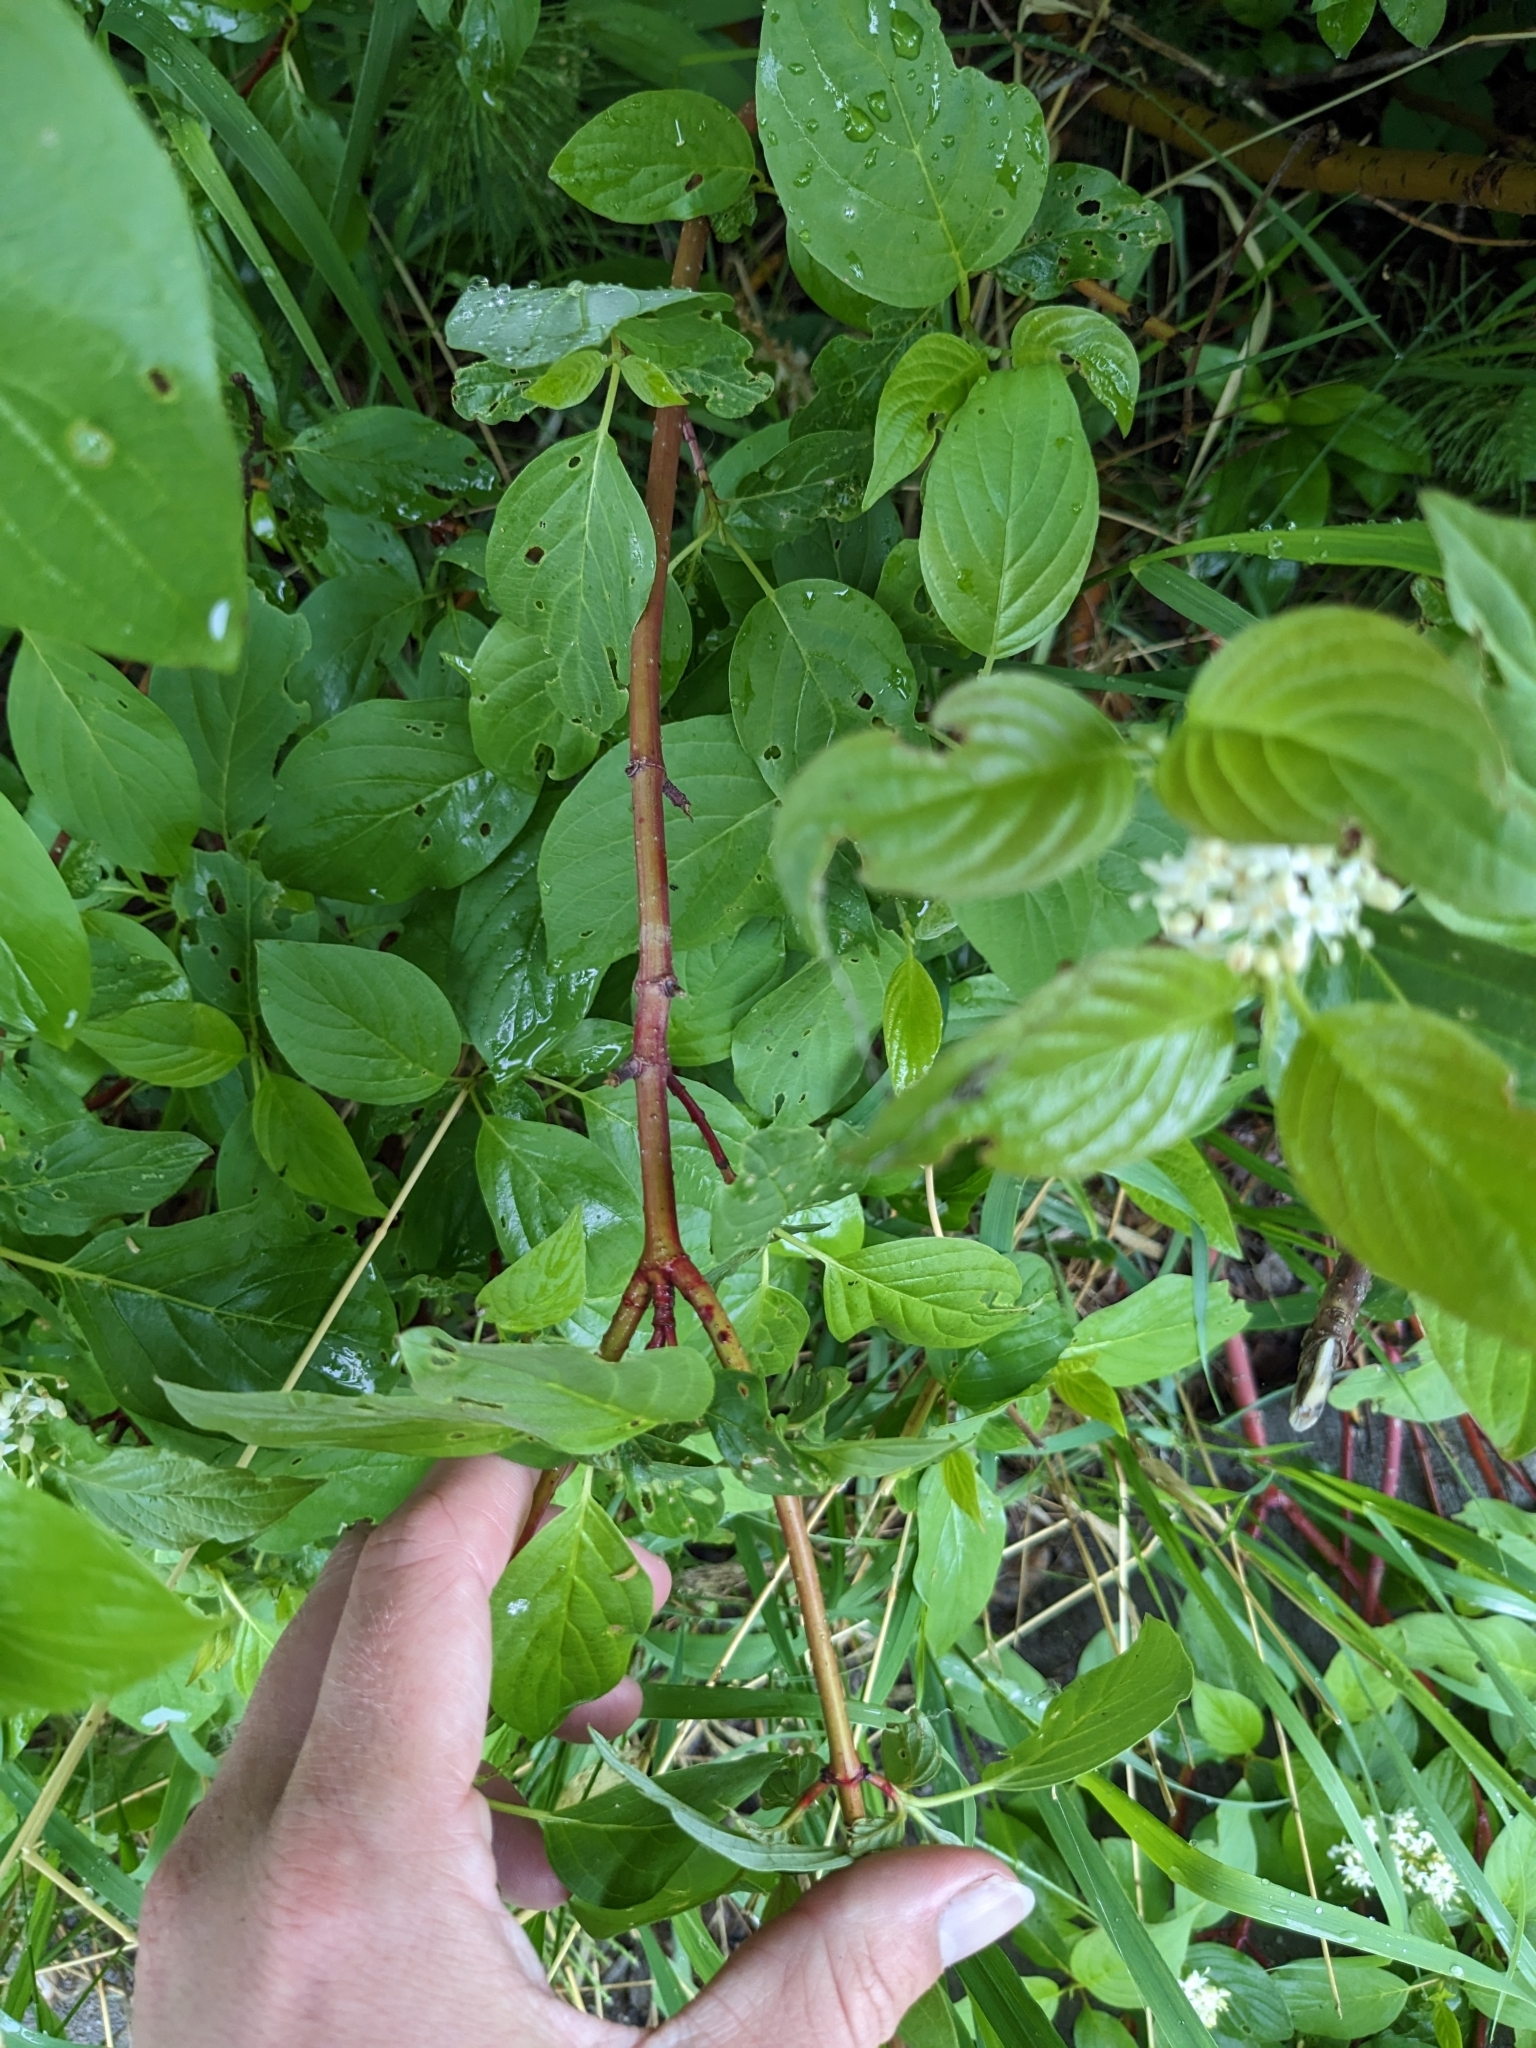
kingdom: Plantae
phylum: Tracheophyta
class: Magnoliopsida
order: Cornales
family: Cornaceae
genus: Cornus
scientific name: Cornus sericea
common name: Red-osier dogwood
